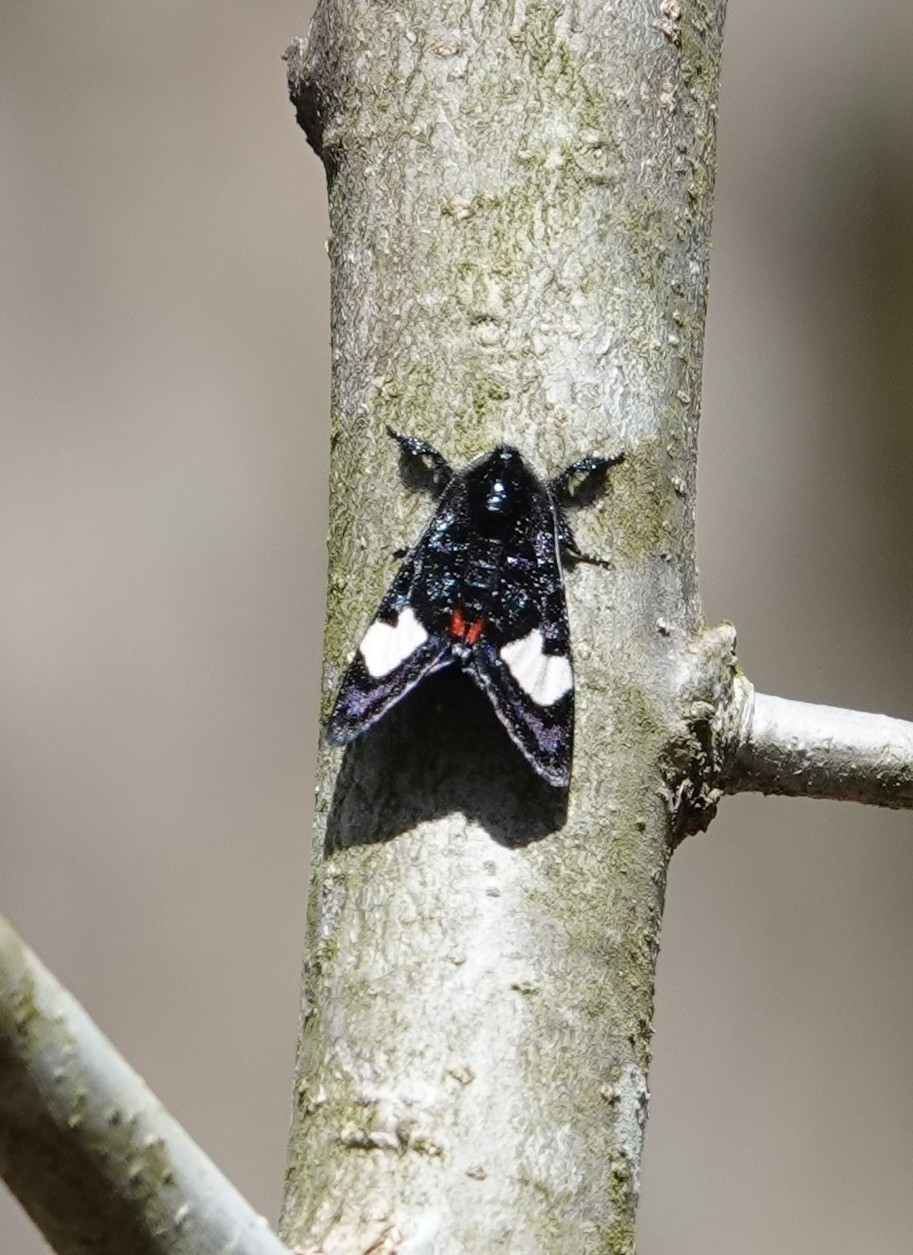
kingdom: Animalia
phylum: Arthropoda
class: Insecta
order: Lepidoptera
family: Noctuidae
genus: Psychomorpha
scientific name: Psychomorpha epimenis
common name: Grapevine epimenis moth
